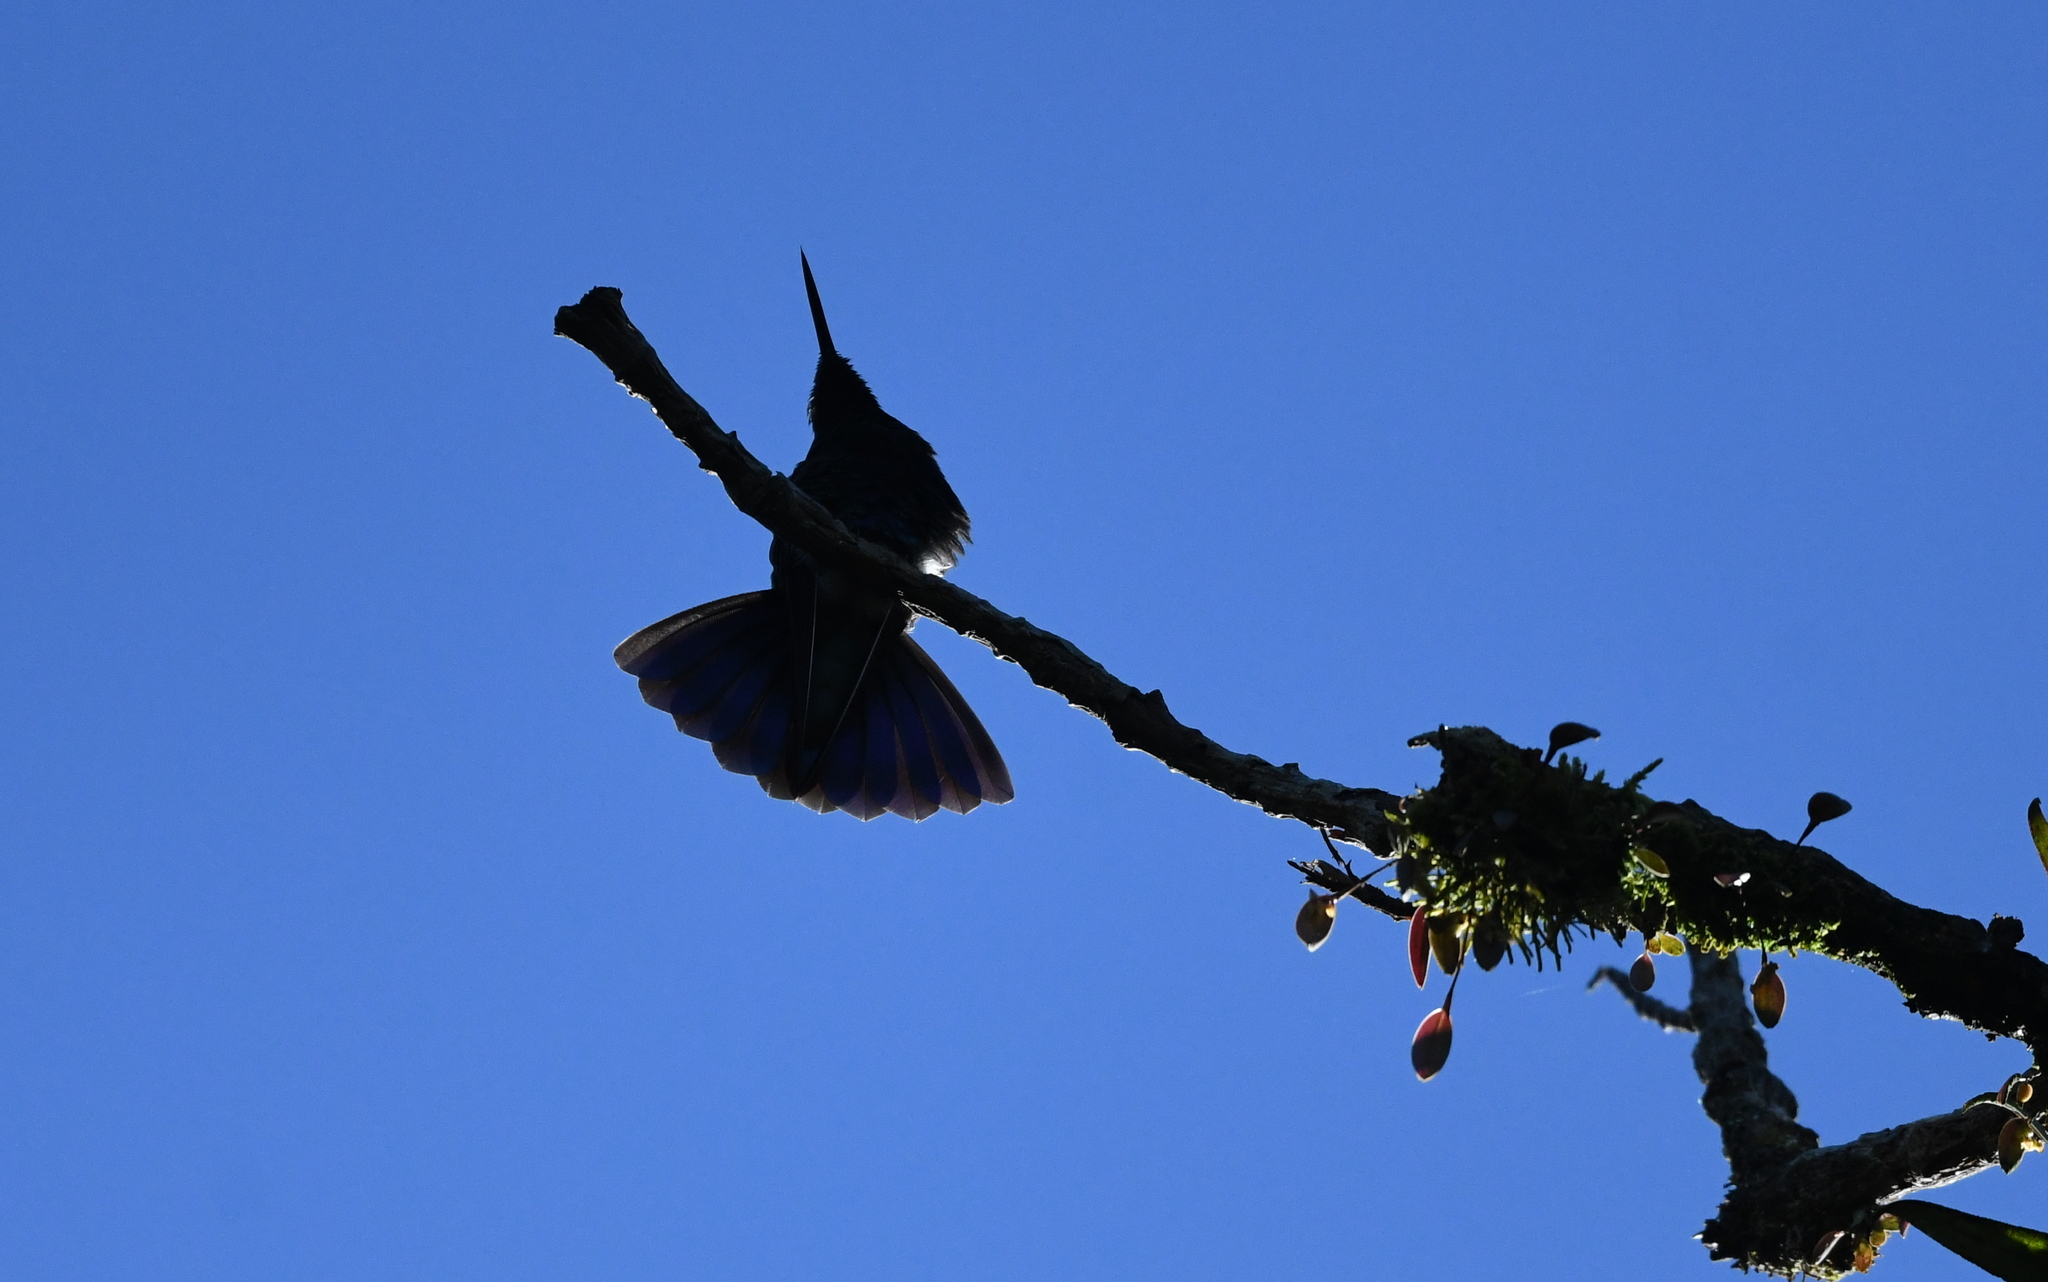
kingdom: Animalia
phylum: Chordata
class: Aves
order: Apodiformes
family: Trochilidae
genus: Colibri
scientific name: Colibri coruscans
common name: Sparkling violetear
